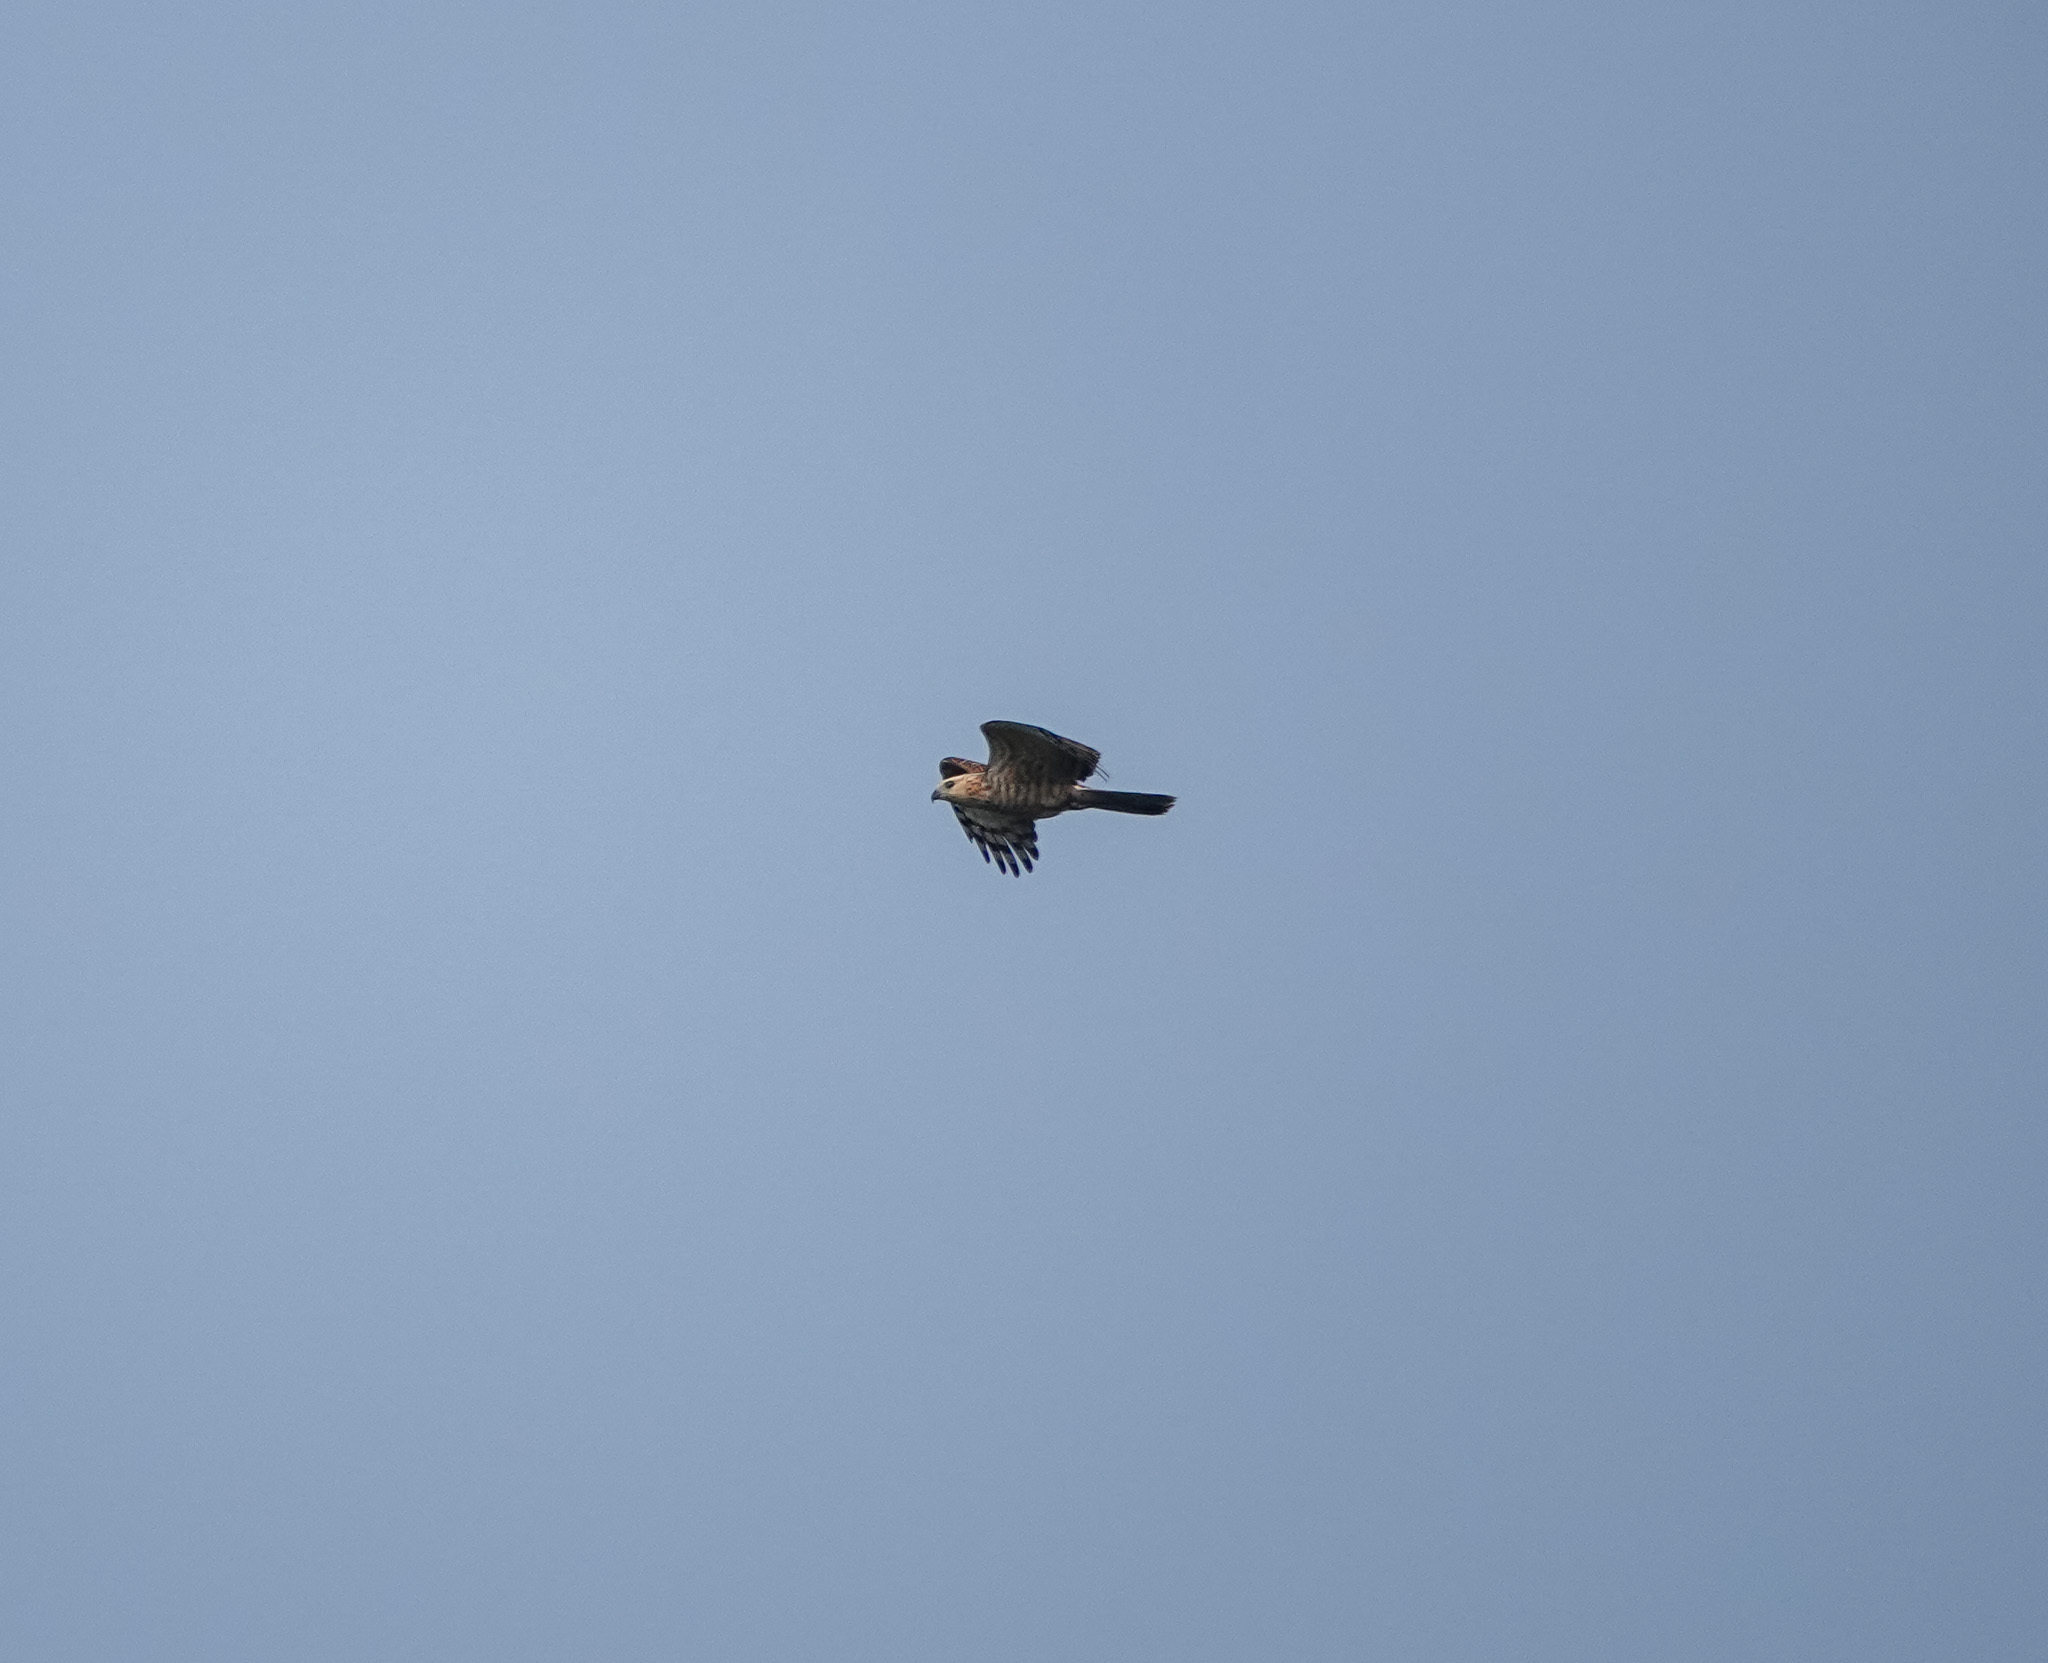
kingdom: Animalia
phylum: Chordata
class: Aves
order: Accipitriformes
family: Accipitridae
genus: Aviceda
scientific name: Aviceda jerdoni
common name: Jerdon's baza
